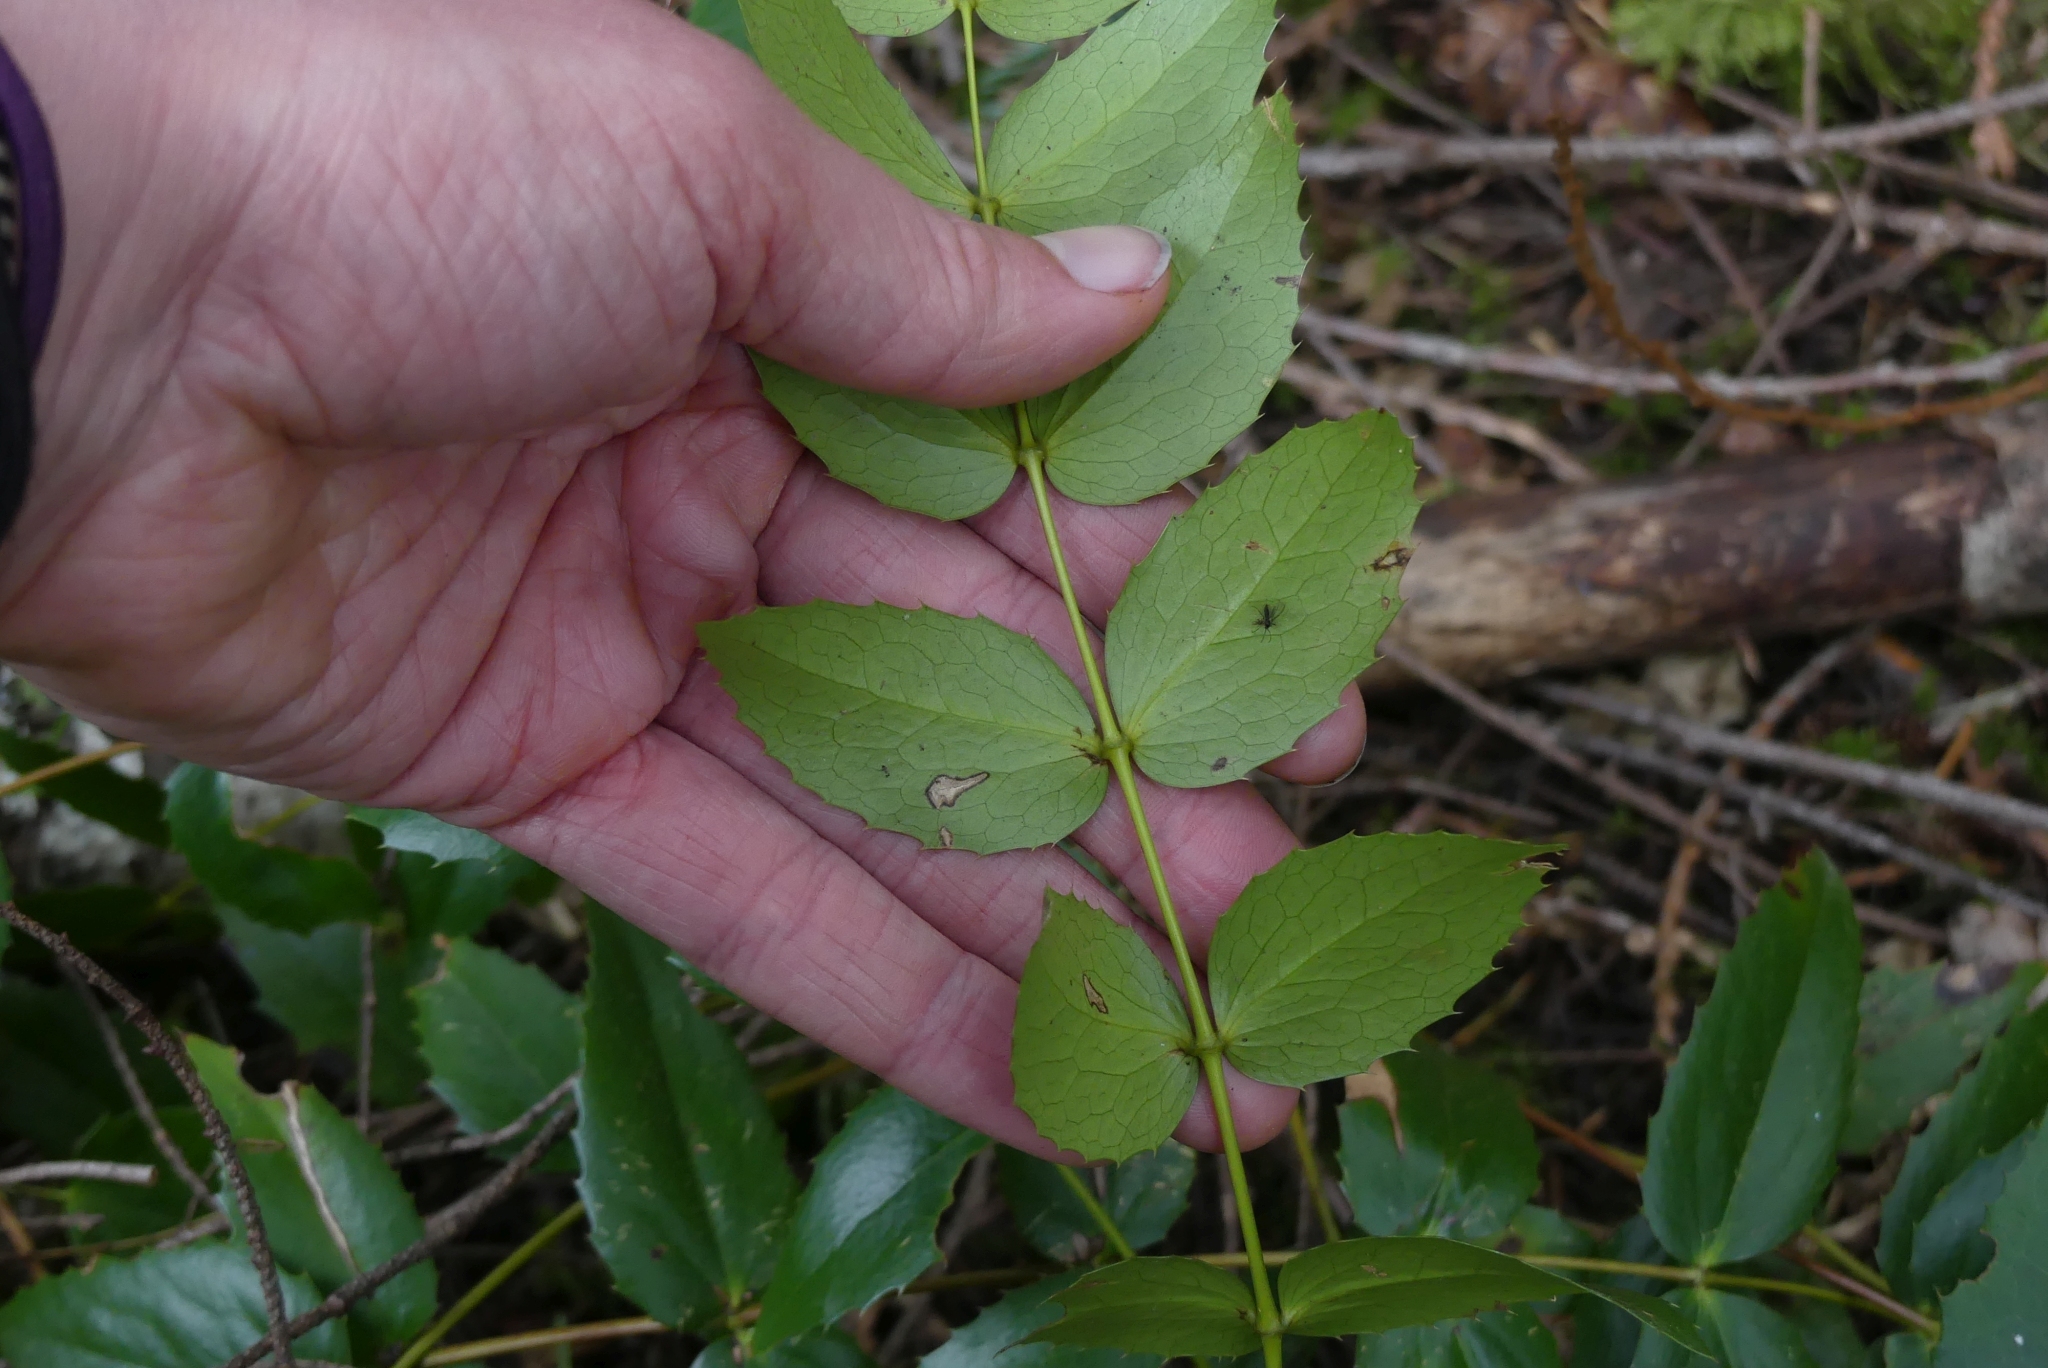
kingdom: Plantae
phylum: Tracheophyta
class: Magnoliopsida
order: Ranunculales
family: Berberidaceae
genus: Mahonia
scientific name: Mahonia nervosa
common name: Cascade oregon-grape
